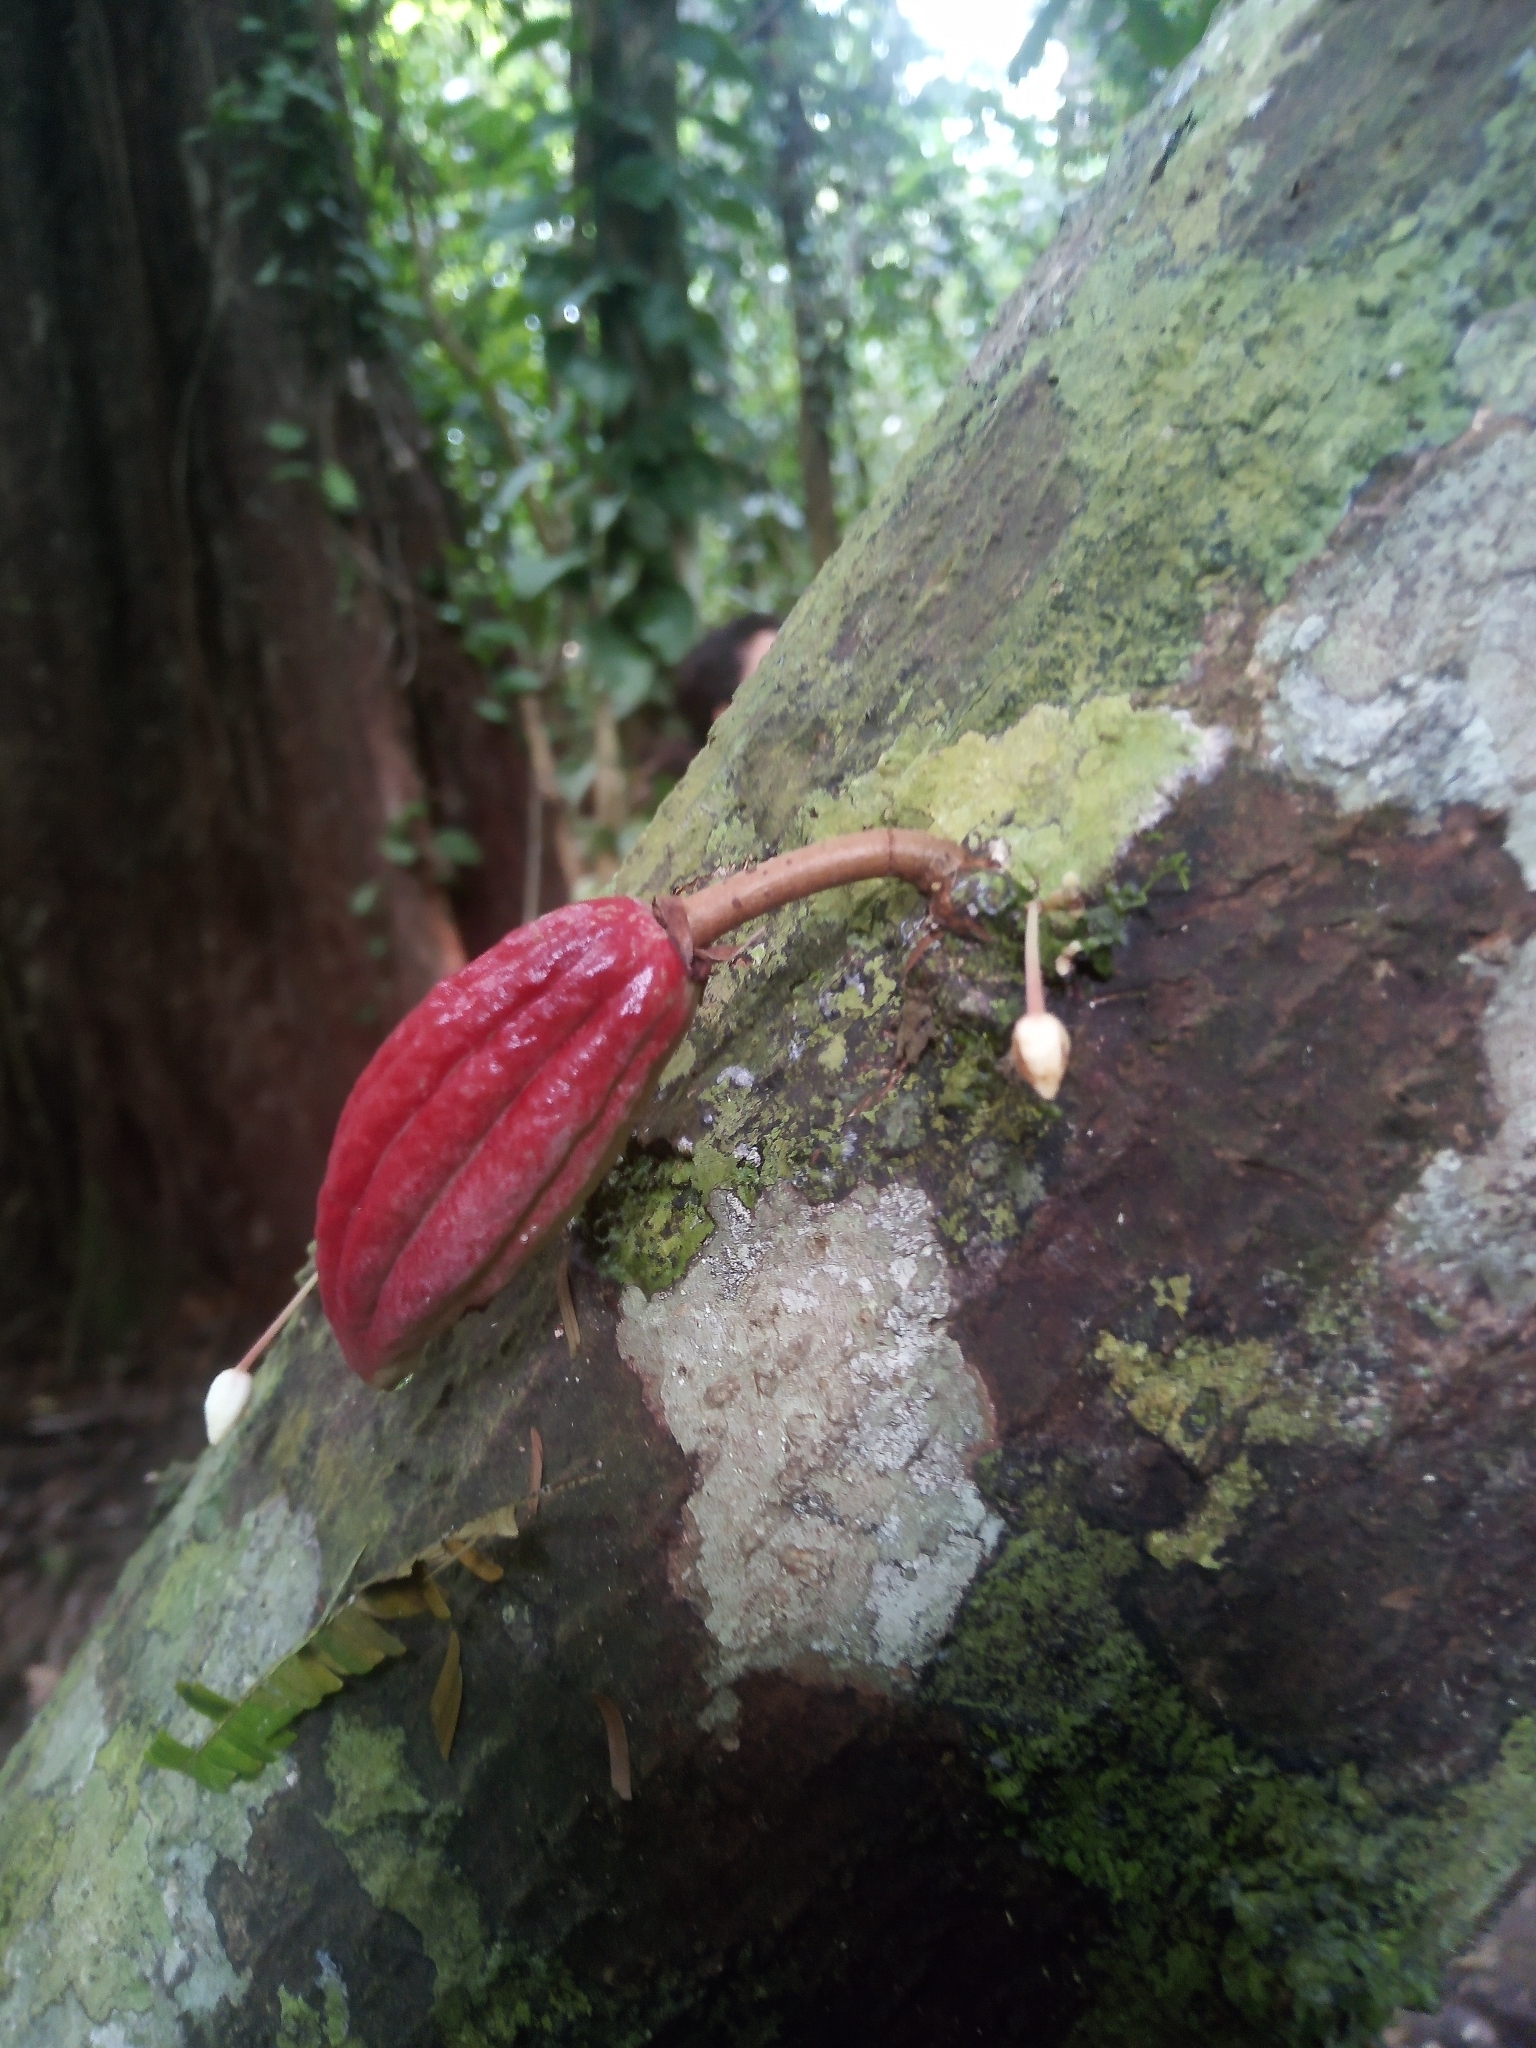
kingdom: Plantae
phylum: Tracheophyta
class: Magnoliopsida
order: Malvales
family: Malvaceae
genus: Theobroma
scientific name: Theobroma cacao
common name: Cocoa
